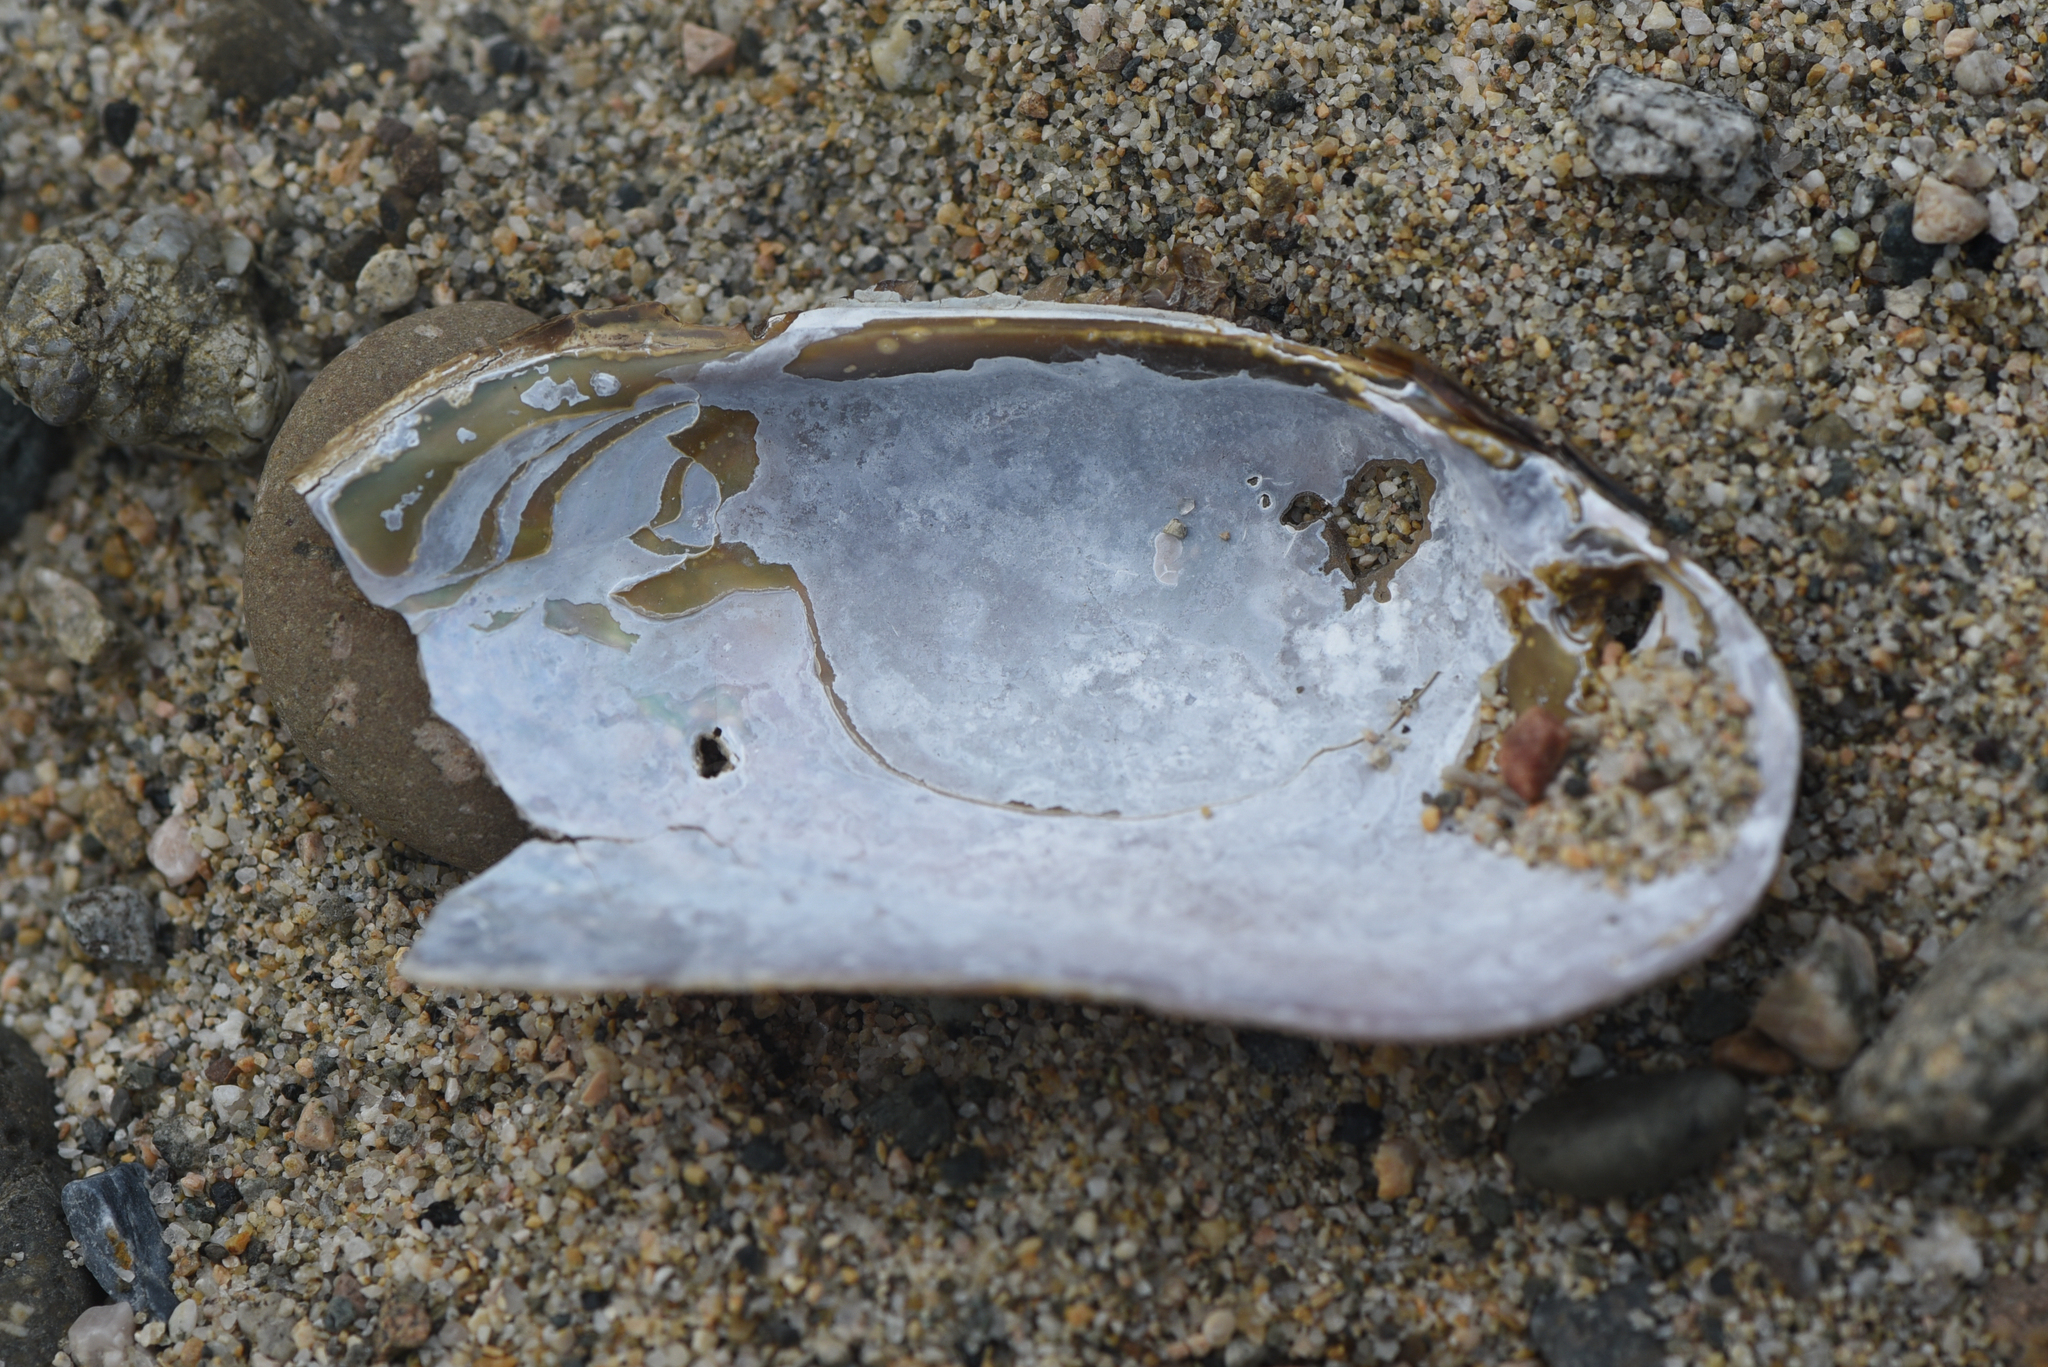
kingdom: Animalia
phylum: Mollusca
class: Bivalvia
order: Unionida
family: Margaritiferidae
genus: Margaritifera
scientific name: Margaritifera falcata
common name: Western pearlshell
